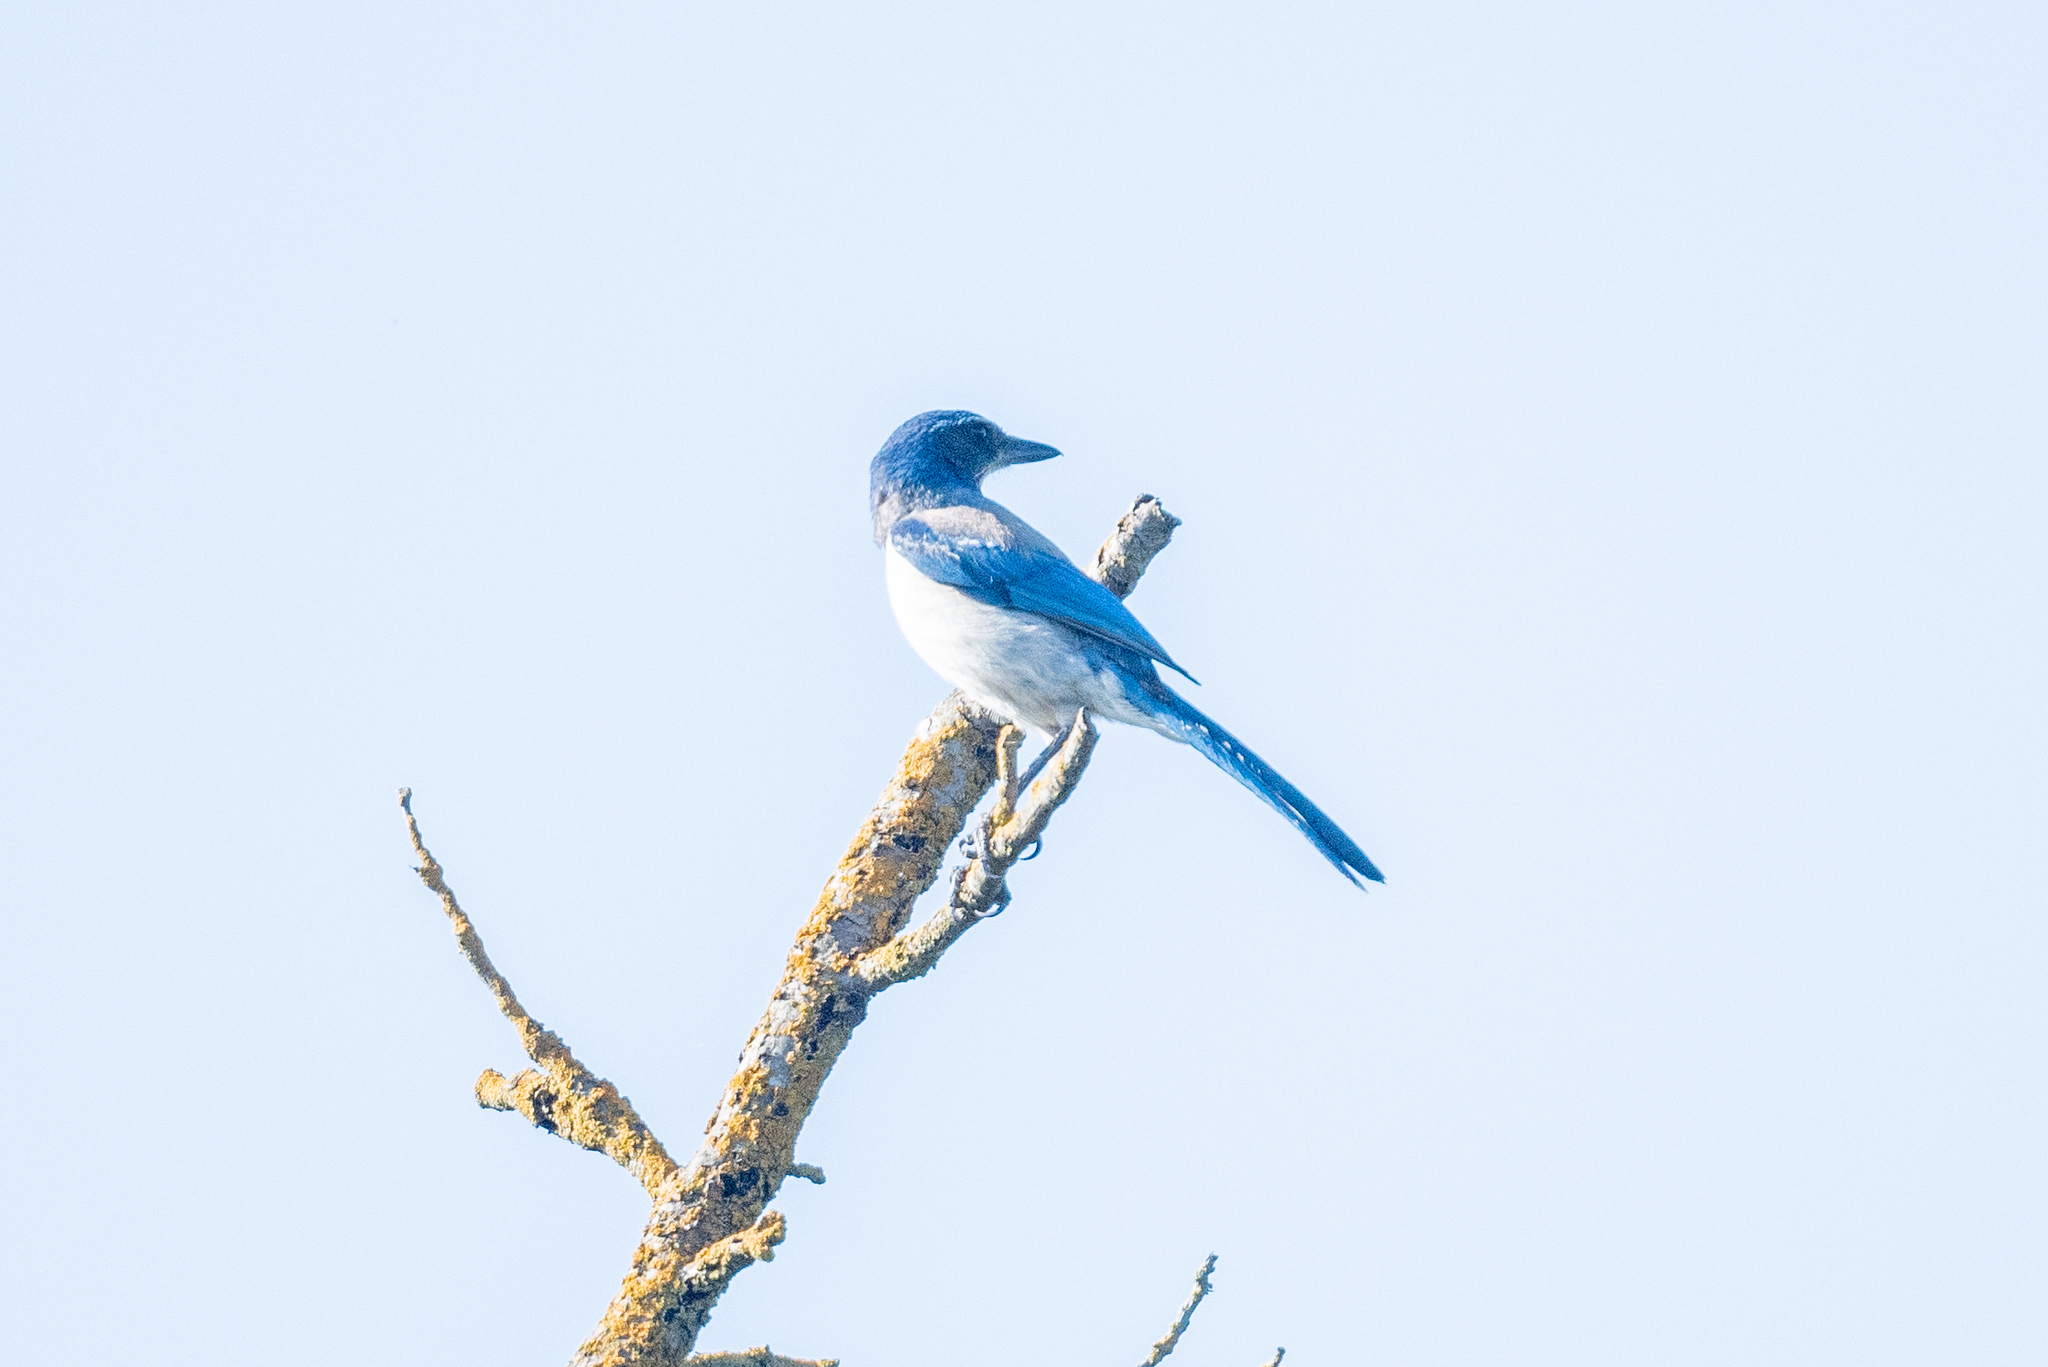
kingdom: Animalia
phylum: Chordata
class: Aves
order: Passeriformes
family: Corvidae
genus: Aphelocoma
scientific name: Aphelocoma californica
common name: California scrub-jay
